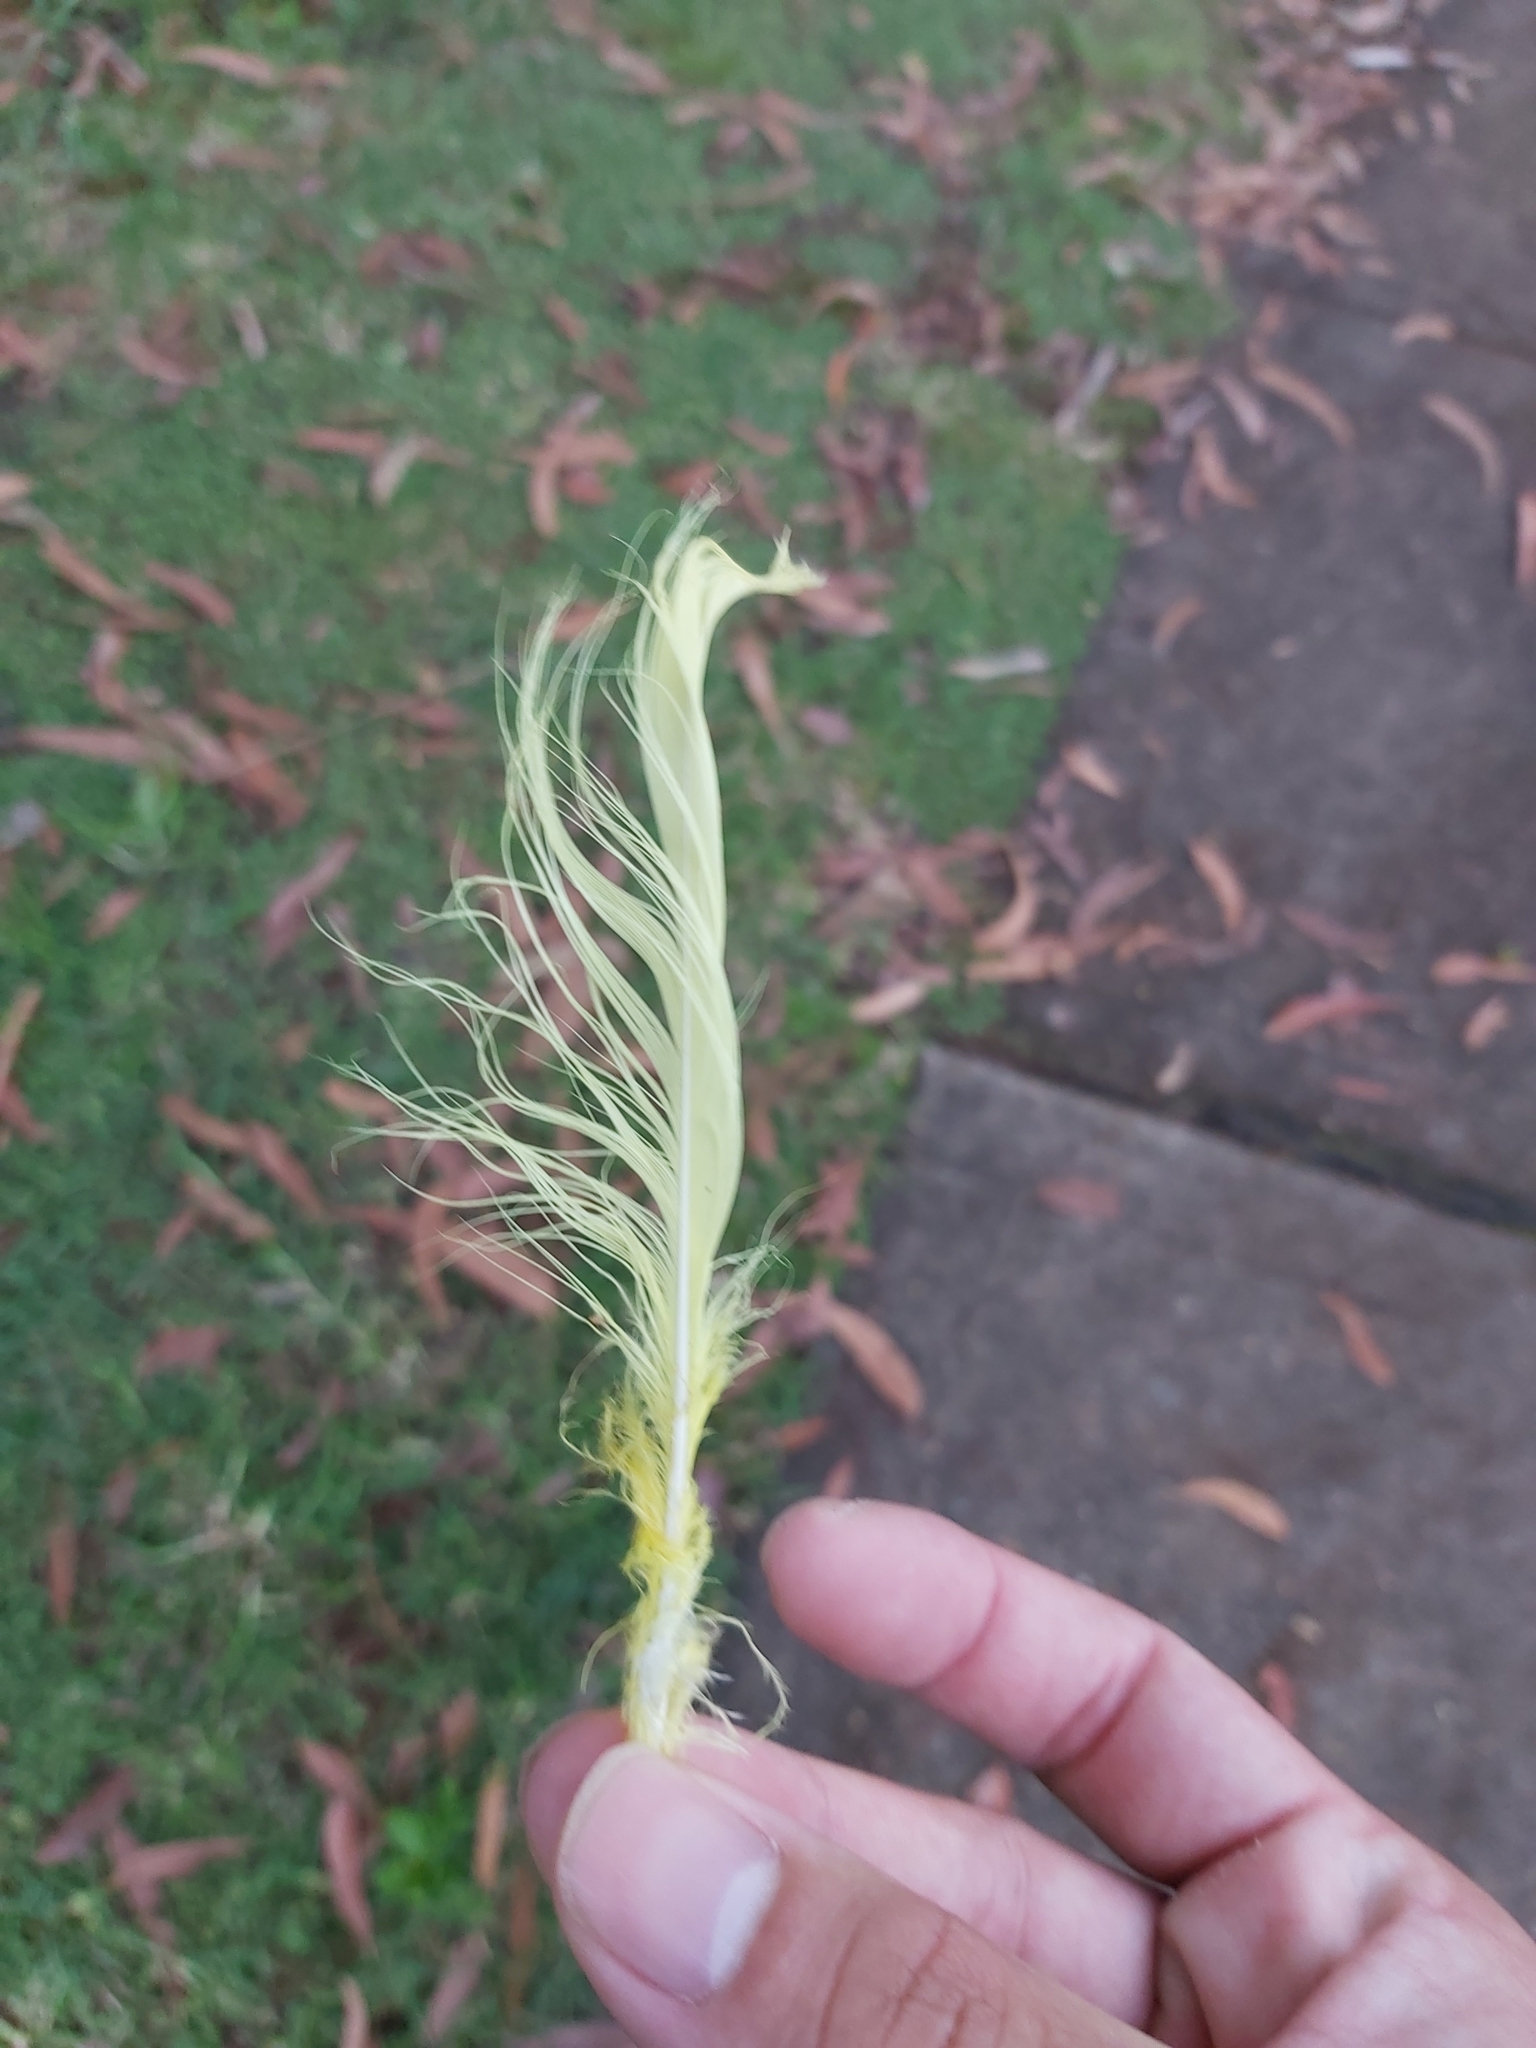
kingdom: Animalia
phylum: Chordata
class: Aves
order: Psittaciformes
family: Psittacidae
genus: Cacatua
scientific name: Cacatua galerita
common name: Sulphur-crested cockatoo
